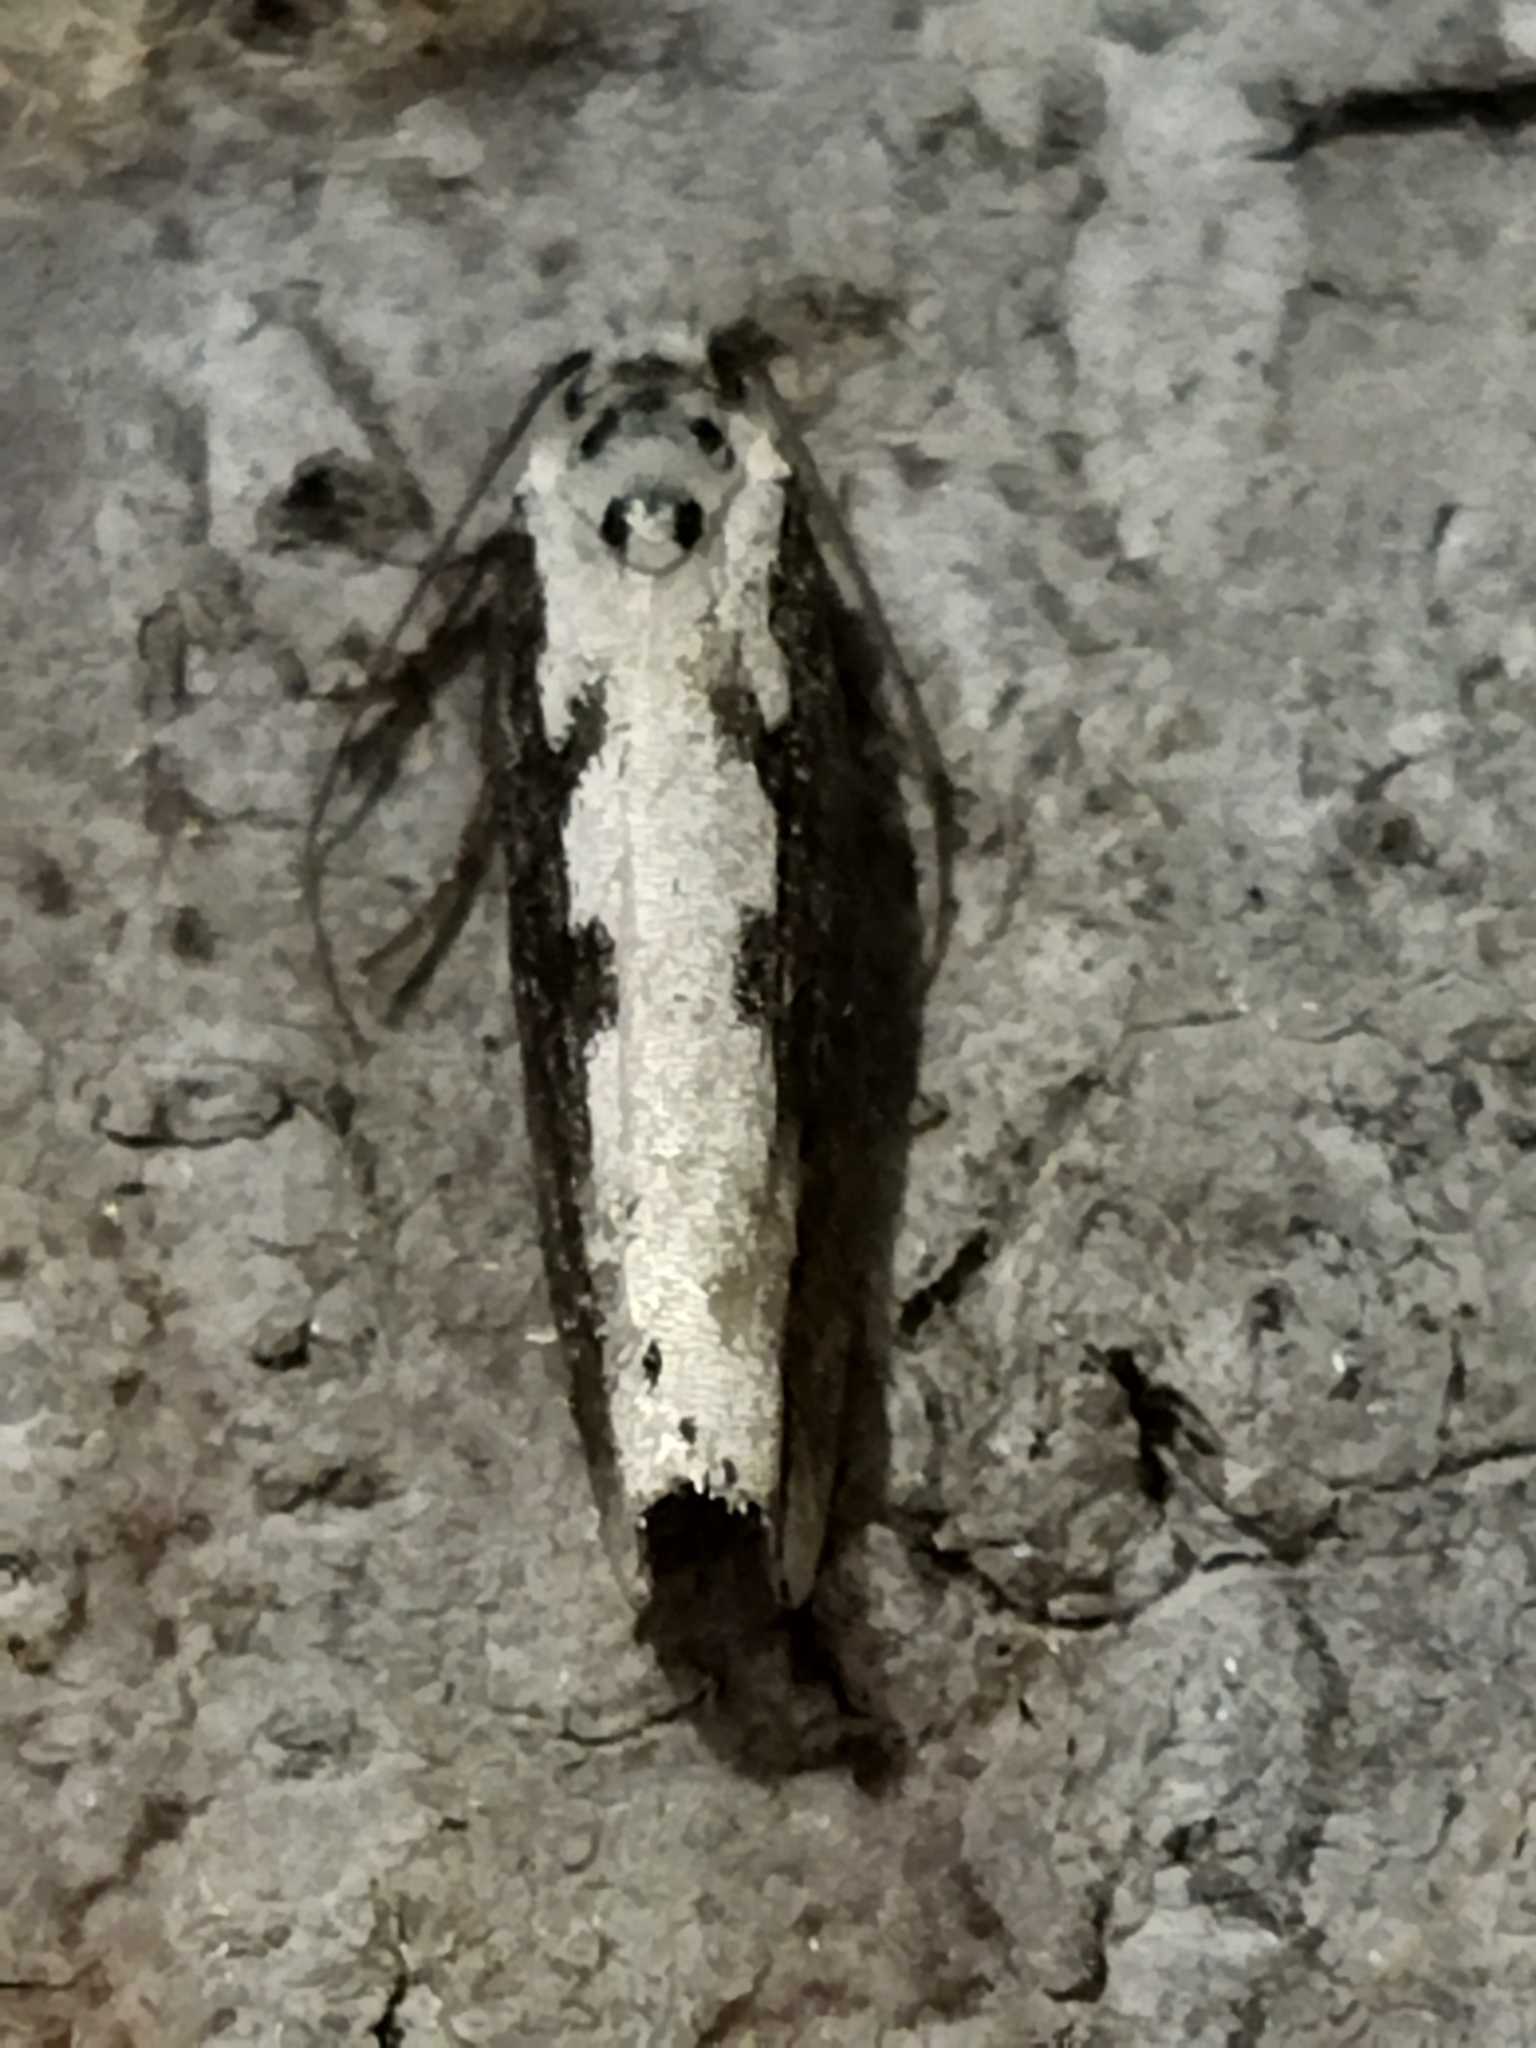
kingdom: Animalia
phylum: Arthropoda
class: Insecta
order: Lepidoptera
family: Ethmiidae
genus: Ethmia
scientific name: Ethmia bipunctella
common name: Bordered ermel
